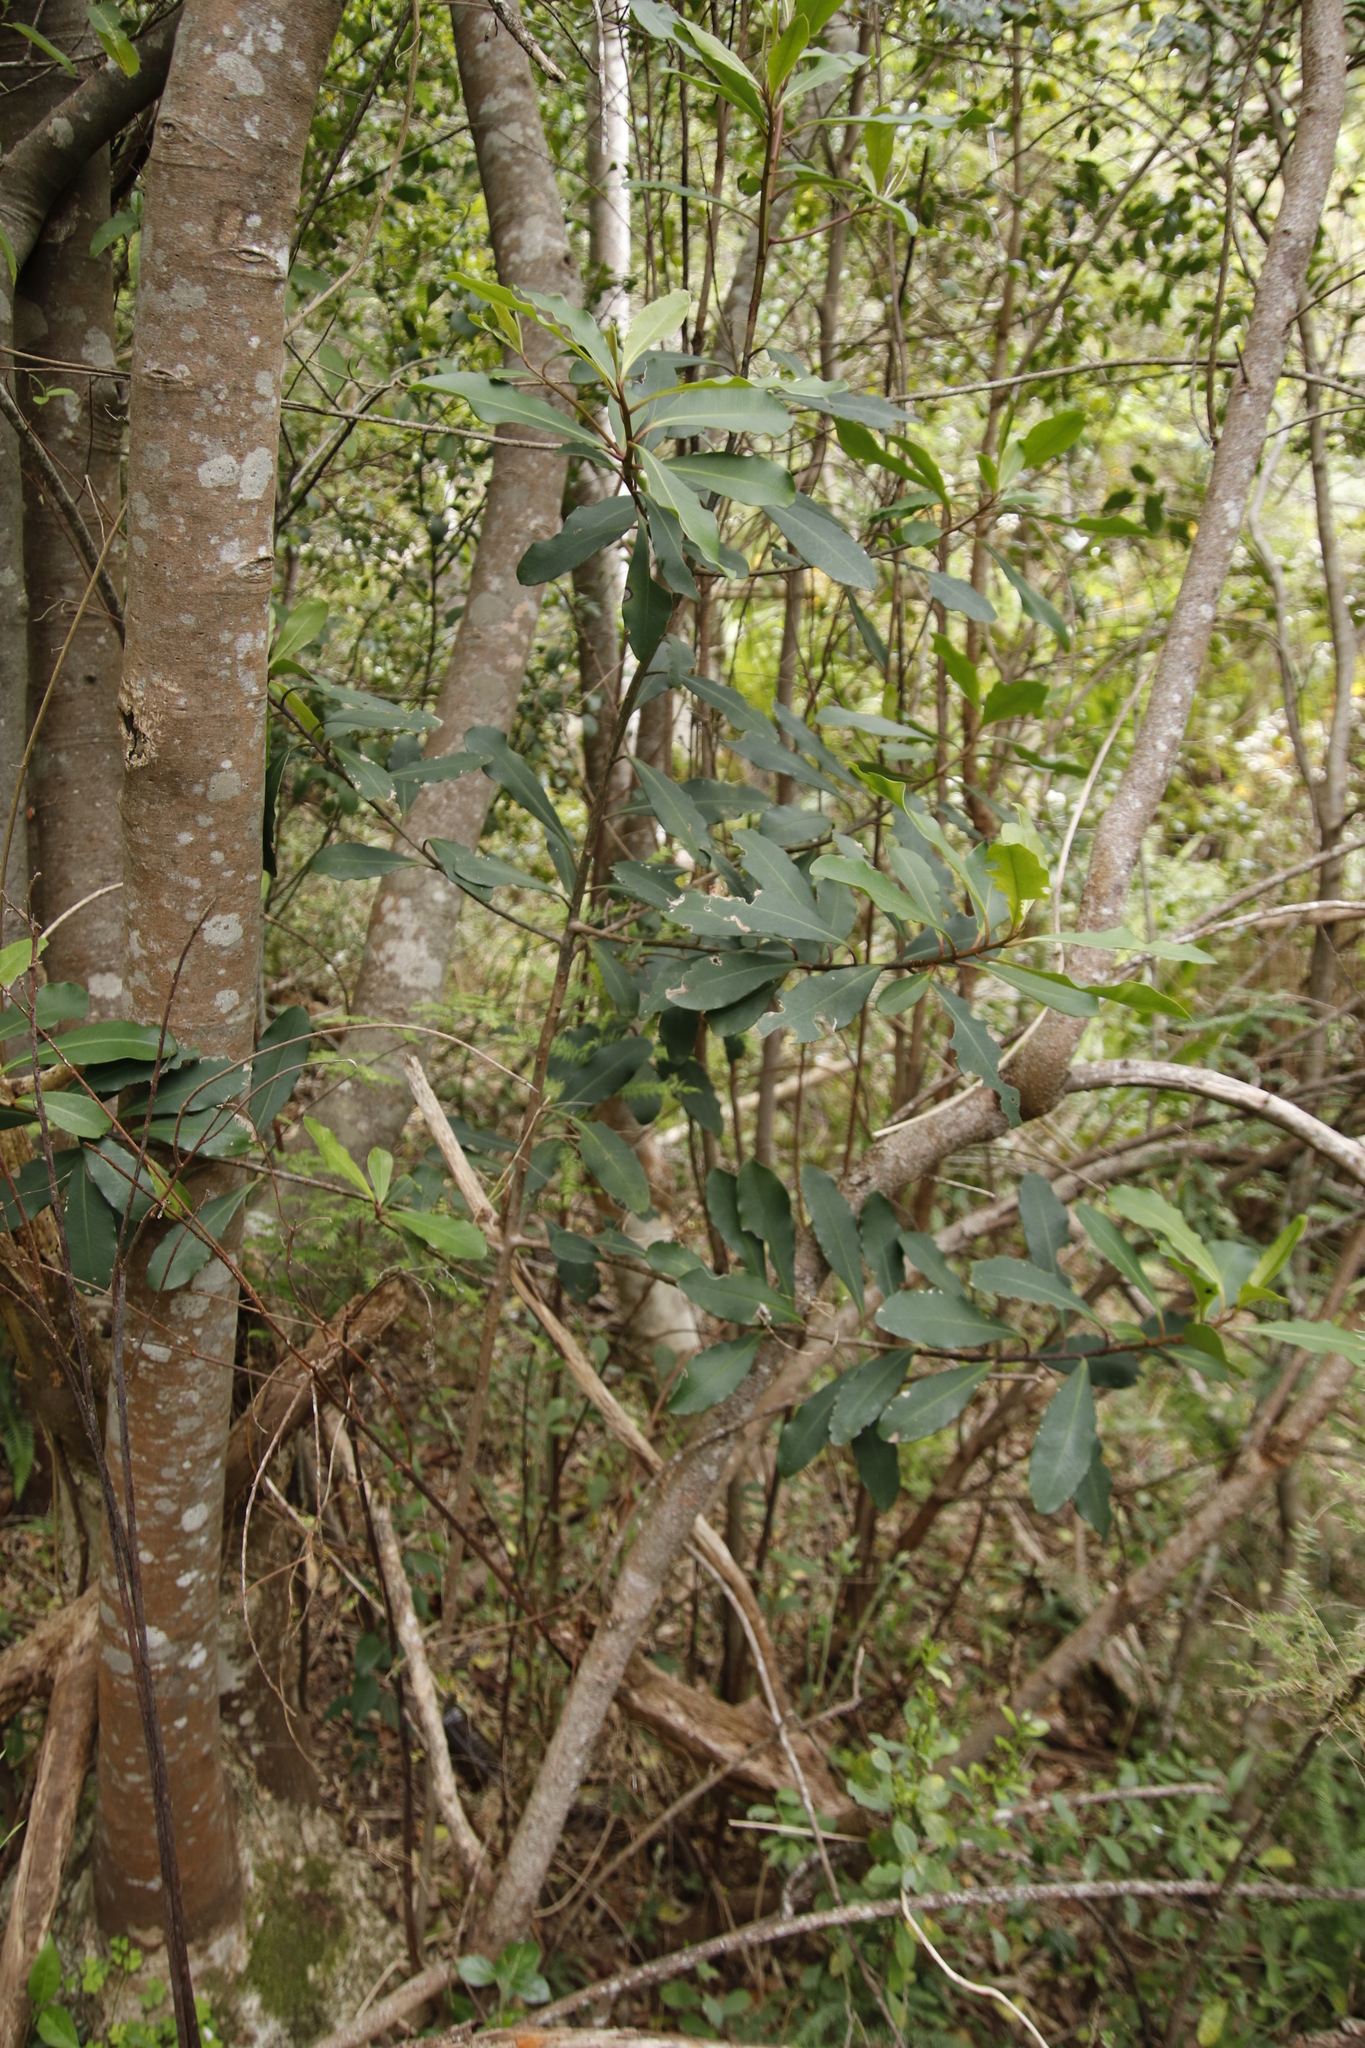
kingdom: Plantae
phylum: Tracheophyta
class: Magnoliopsida
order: Ericales
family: Primulaceae
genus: Myrsine
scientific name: Myrsine melanophloeos
